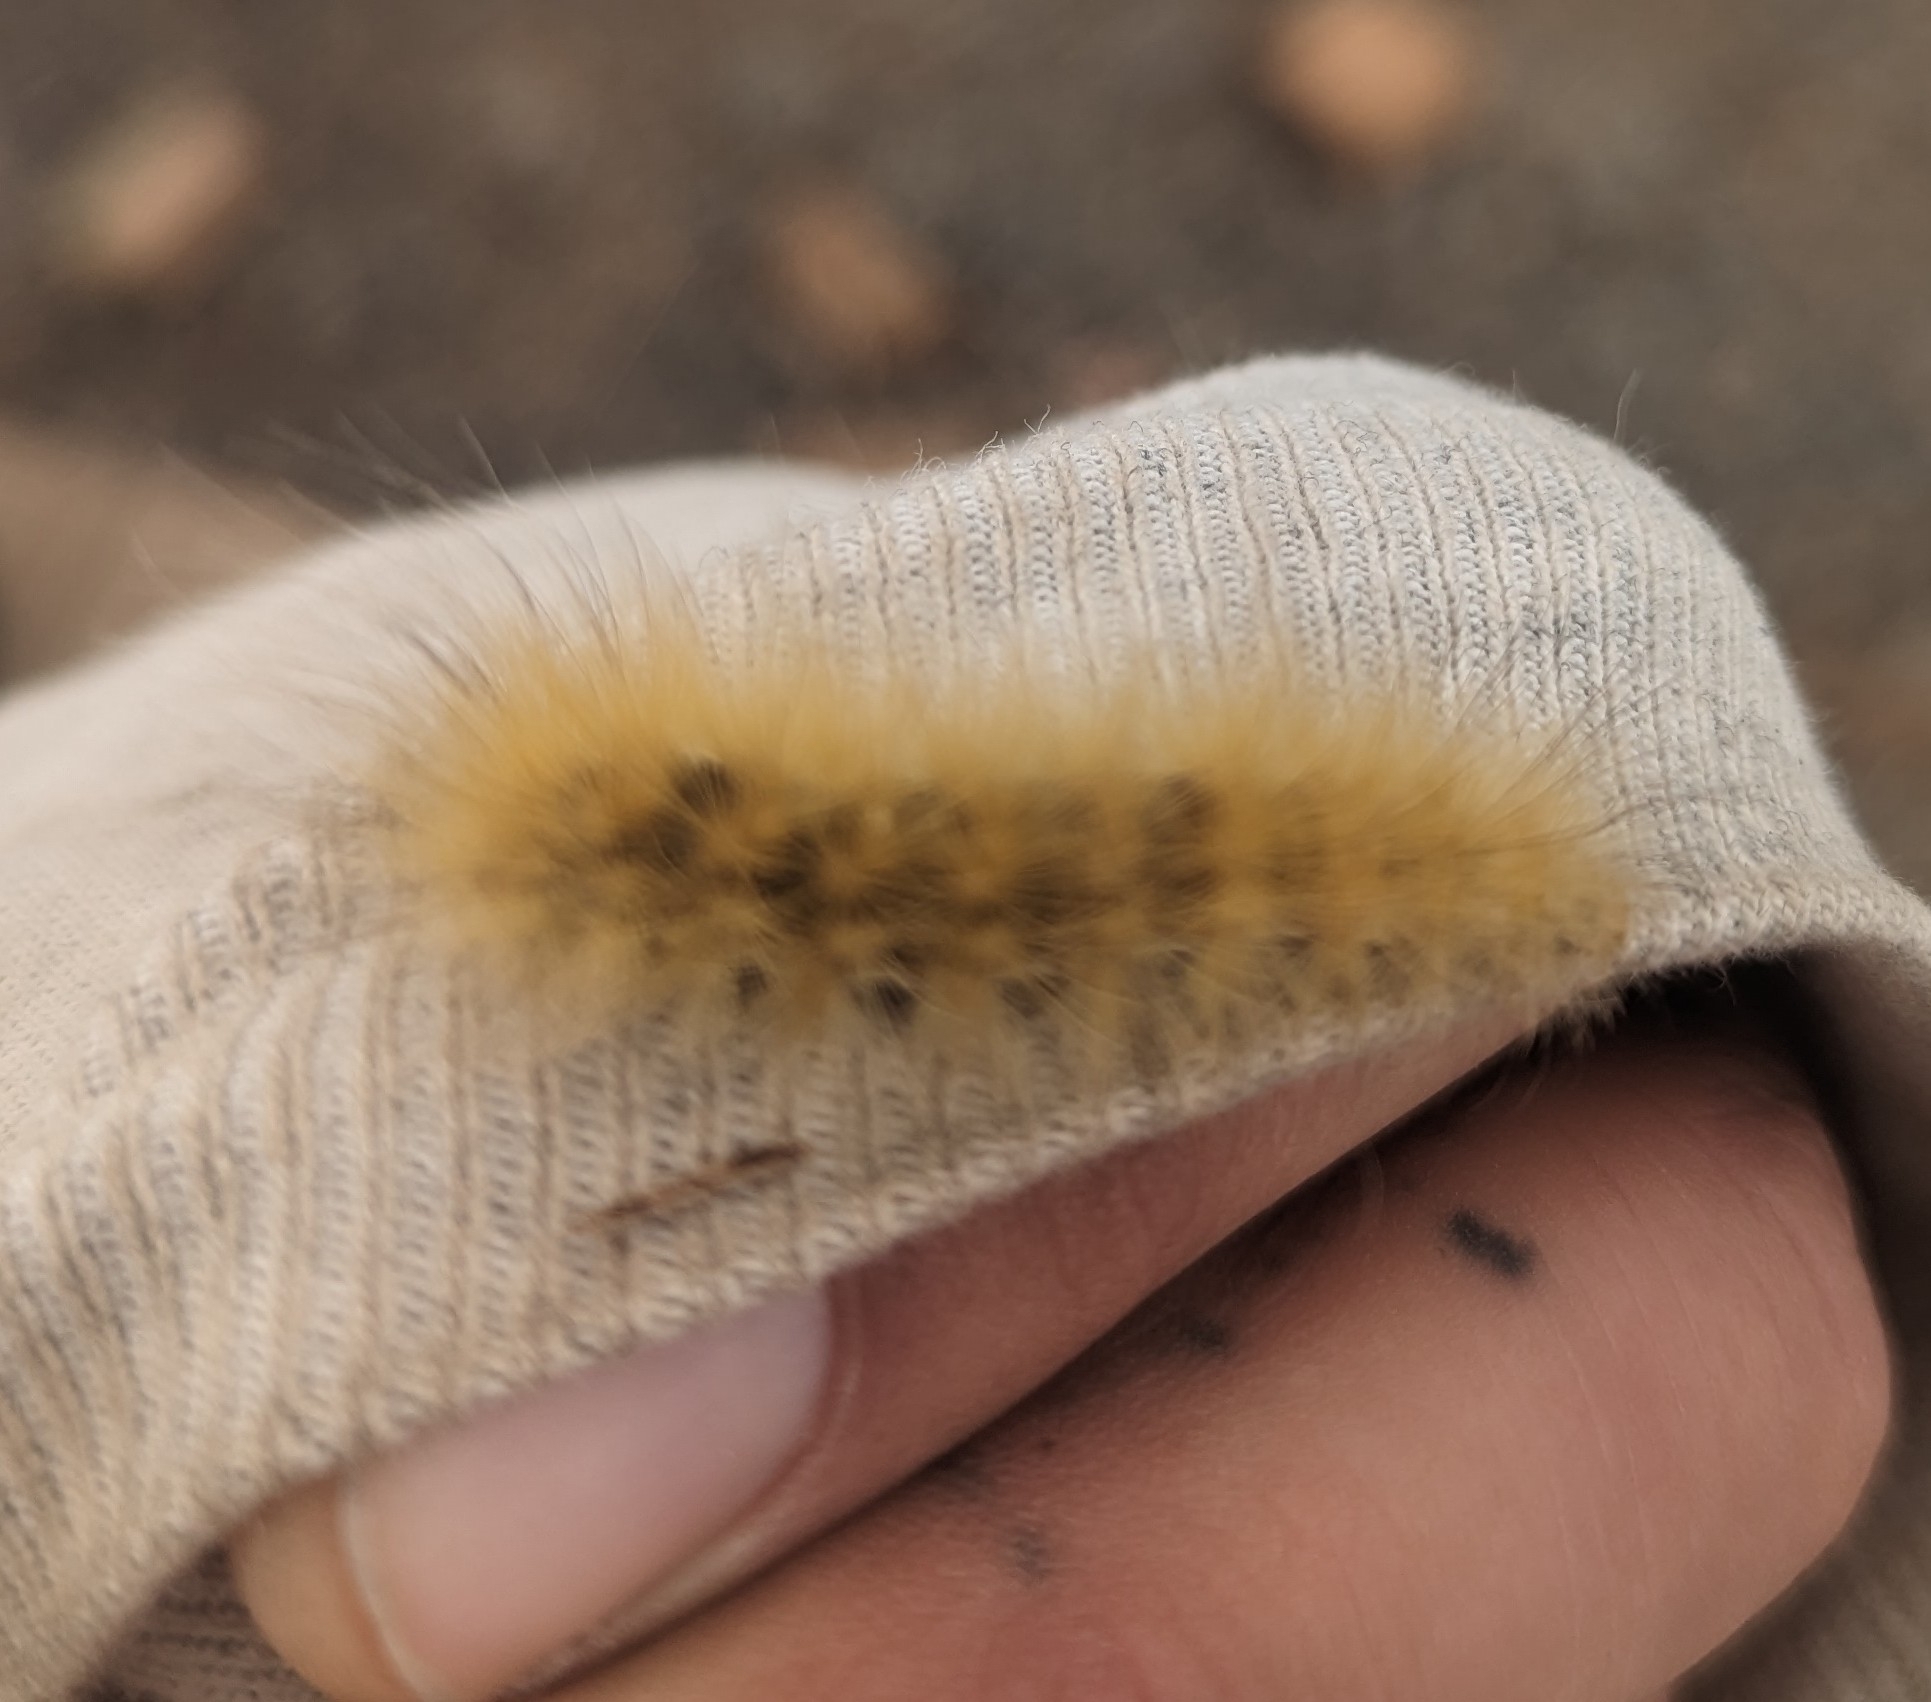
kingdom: Animalia
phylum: Arthropoda
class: Insecta
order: Lepidoptera
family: Erebidae
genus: Spilosoma
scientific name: Spilosoma virginica
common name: Virginia tiger moth
